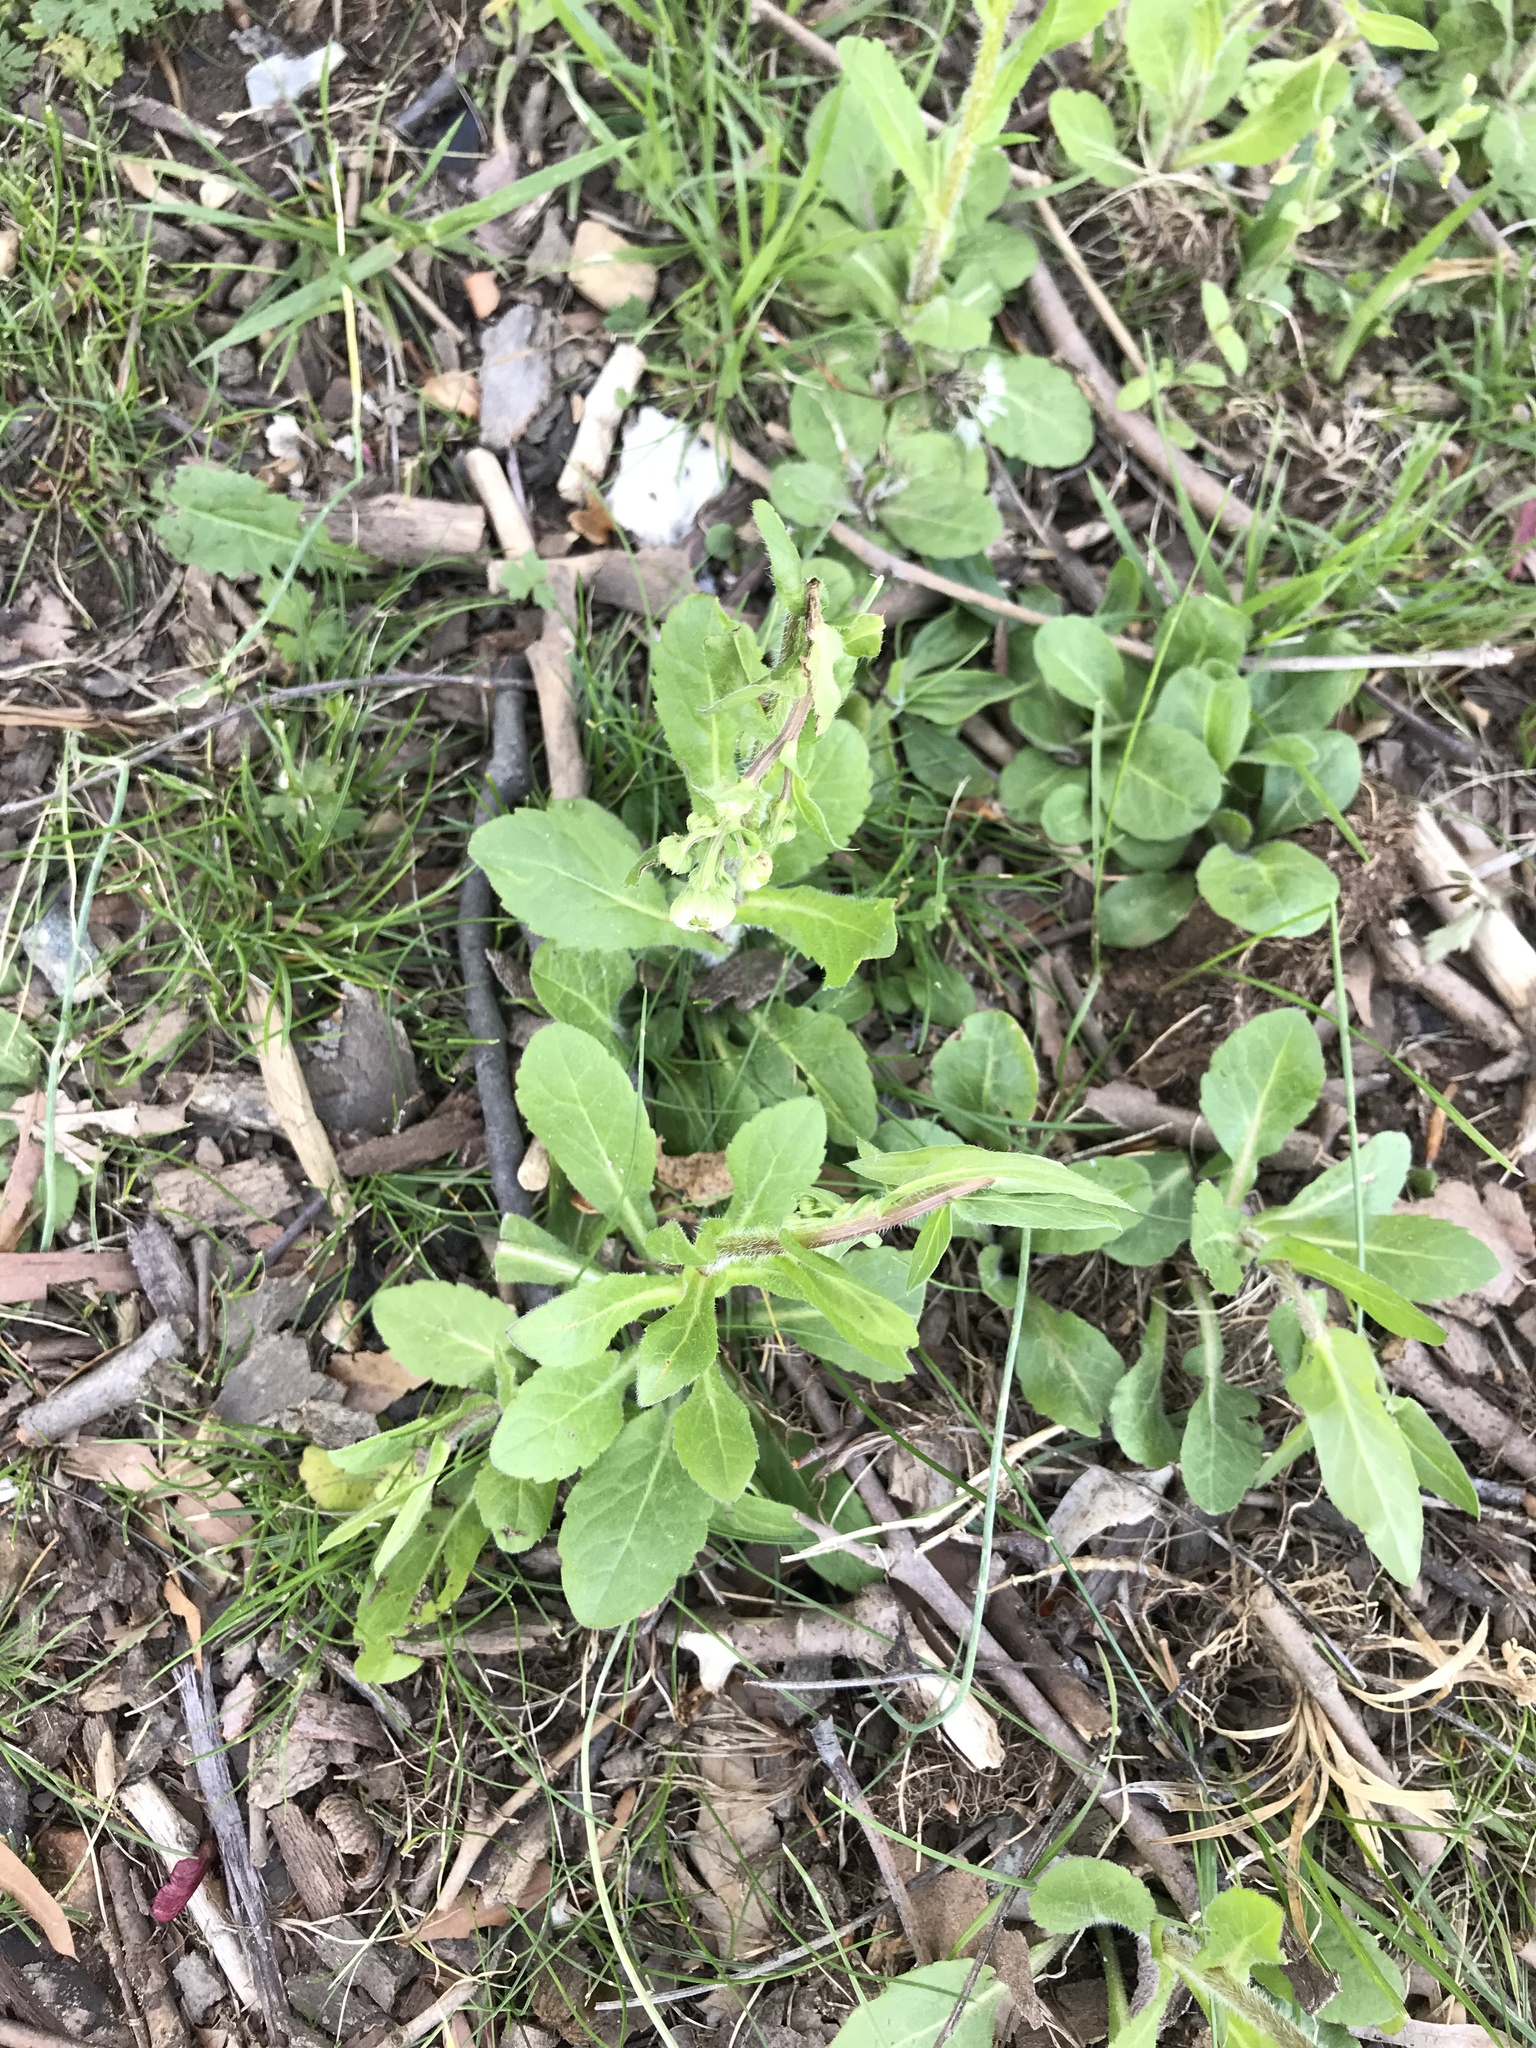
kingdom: Plantae
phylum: Tracheophyta
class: Magnoliopsida
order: Asterales
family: Asteraceae
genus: Erigeron
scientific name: Erigeron philadelphicus
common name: Robin's-plantain
